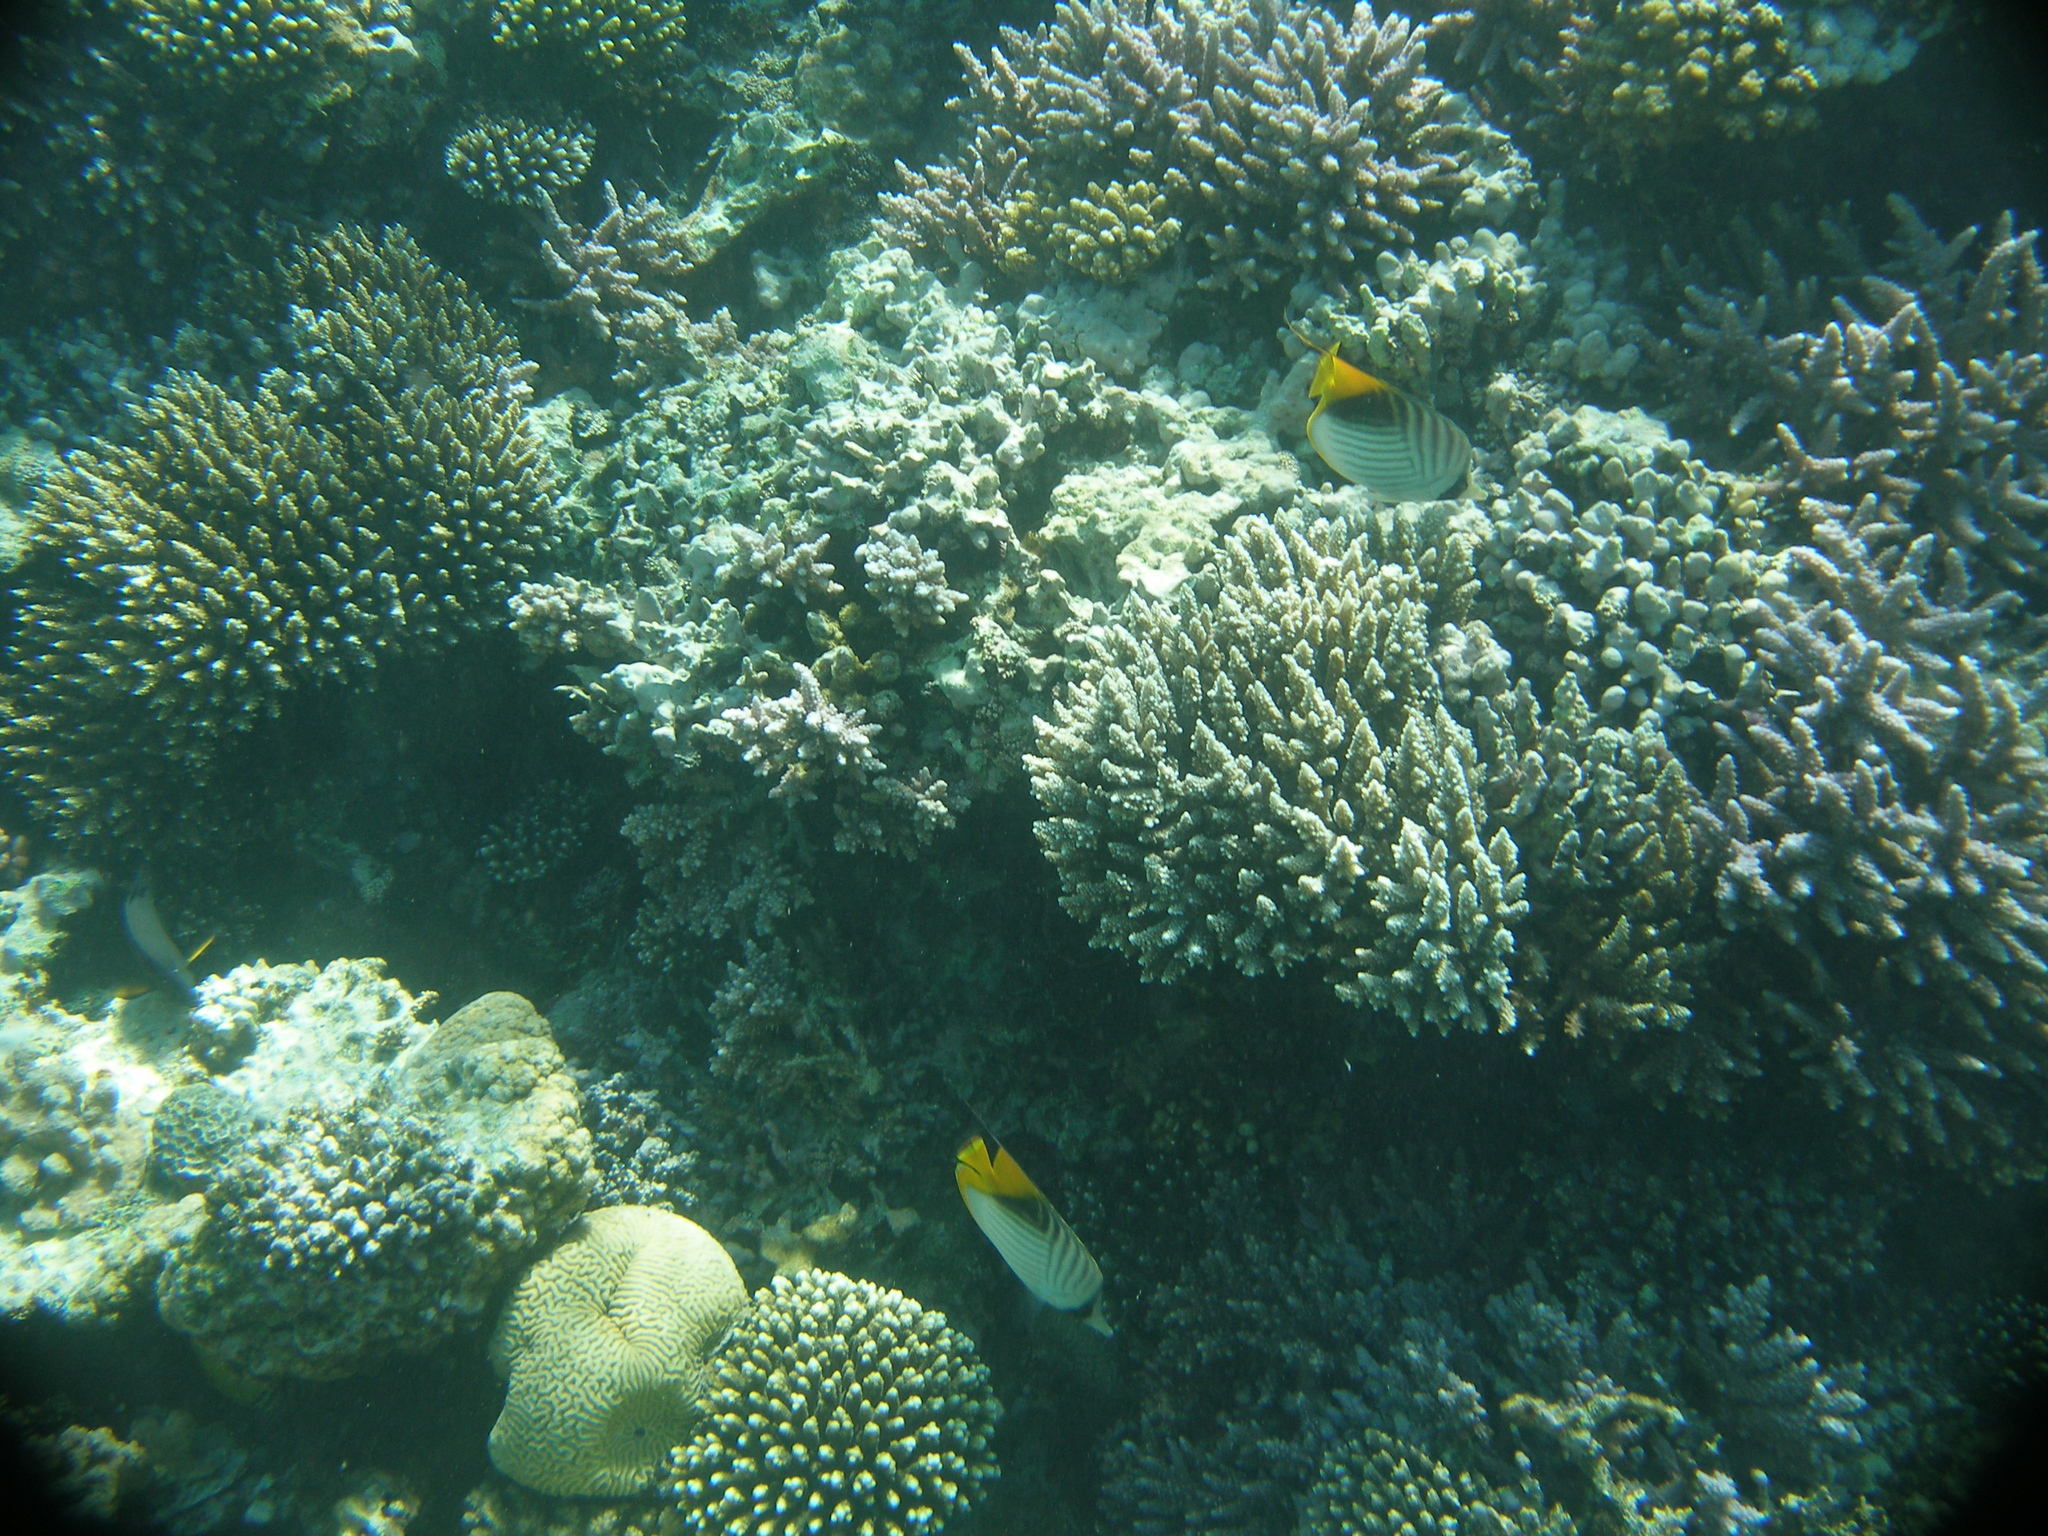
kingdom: Animalia
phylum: Chordata
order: Perciformes
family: Chaetodontidae
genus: Chaetodon
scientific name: Chaetodon auriga
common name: Threadfin butterflyfish
